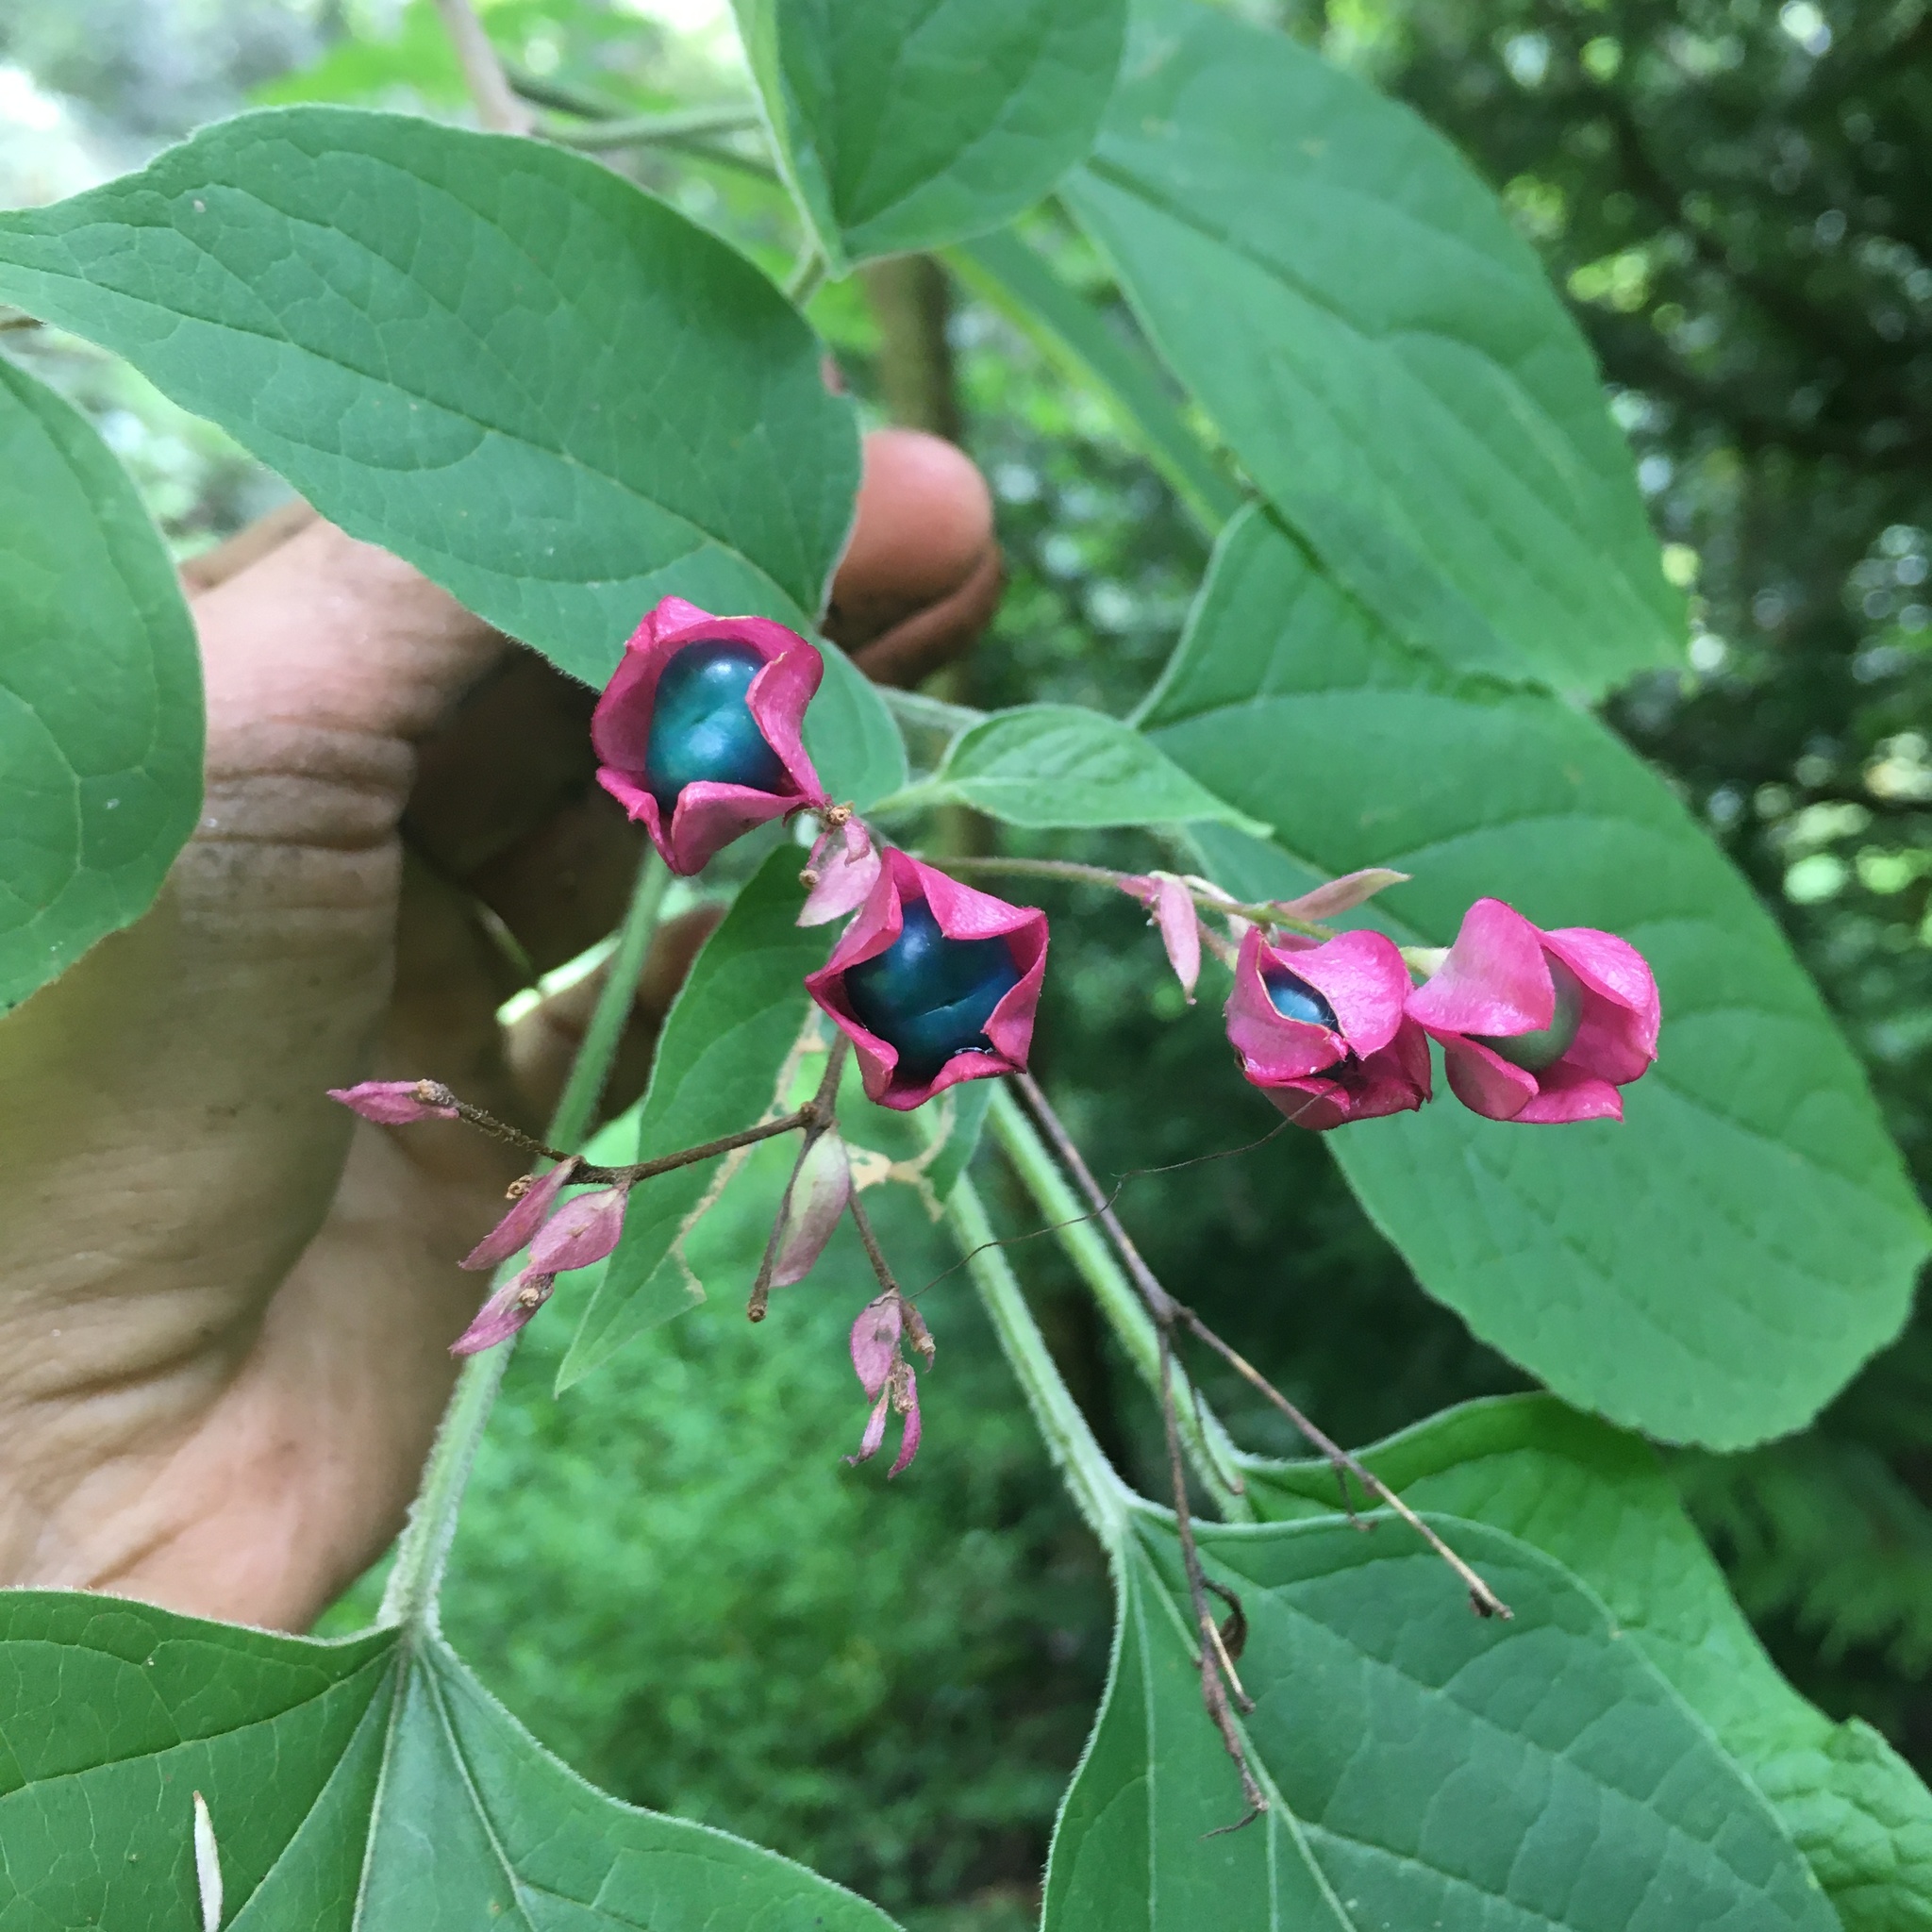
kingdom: Plantae
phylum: Tracheophyta
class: Magnoliopsida
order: Lamiales
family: Lamiaceae
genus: Clerodendrum
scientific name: Clerodendrum trichotomum
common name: Harlequin glorybower
